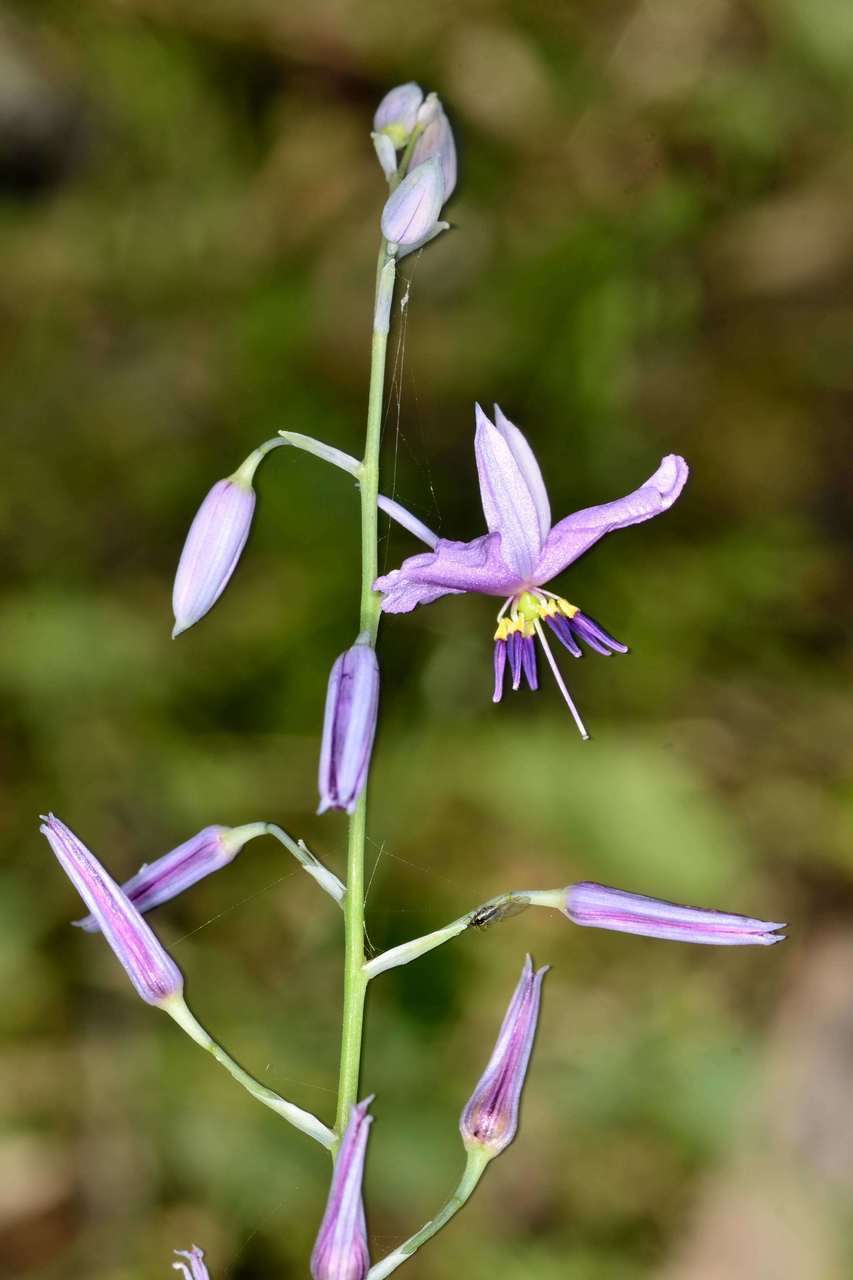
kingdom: Plantae
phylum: Tracheophyta
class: Liliopsida
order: Asparagales
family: Asparagaceae
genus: Arthropodium
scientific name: Arthropodium strictum
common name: Chocolate-lily
